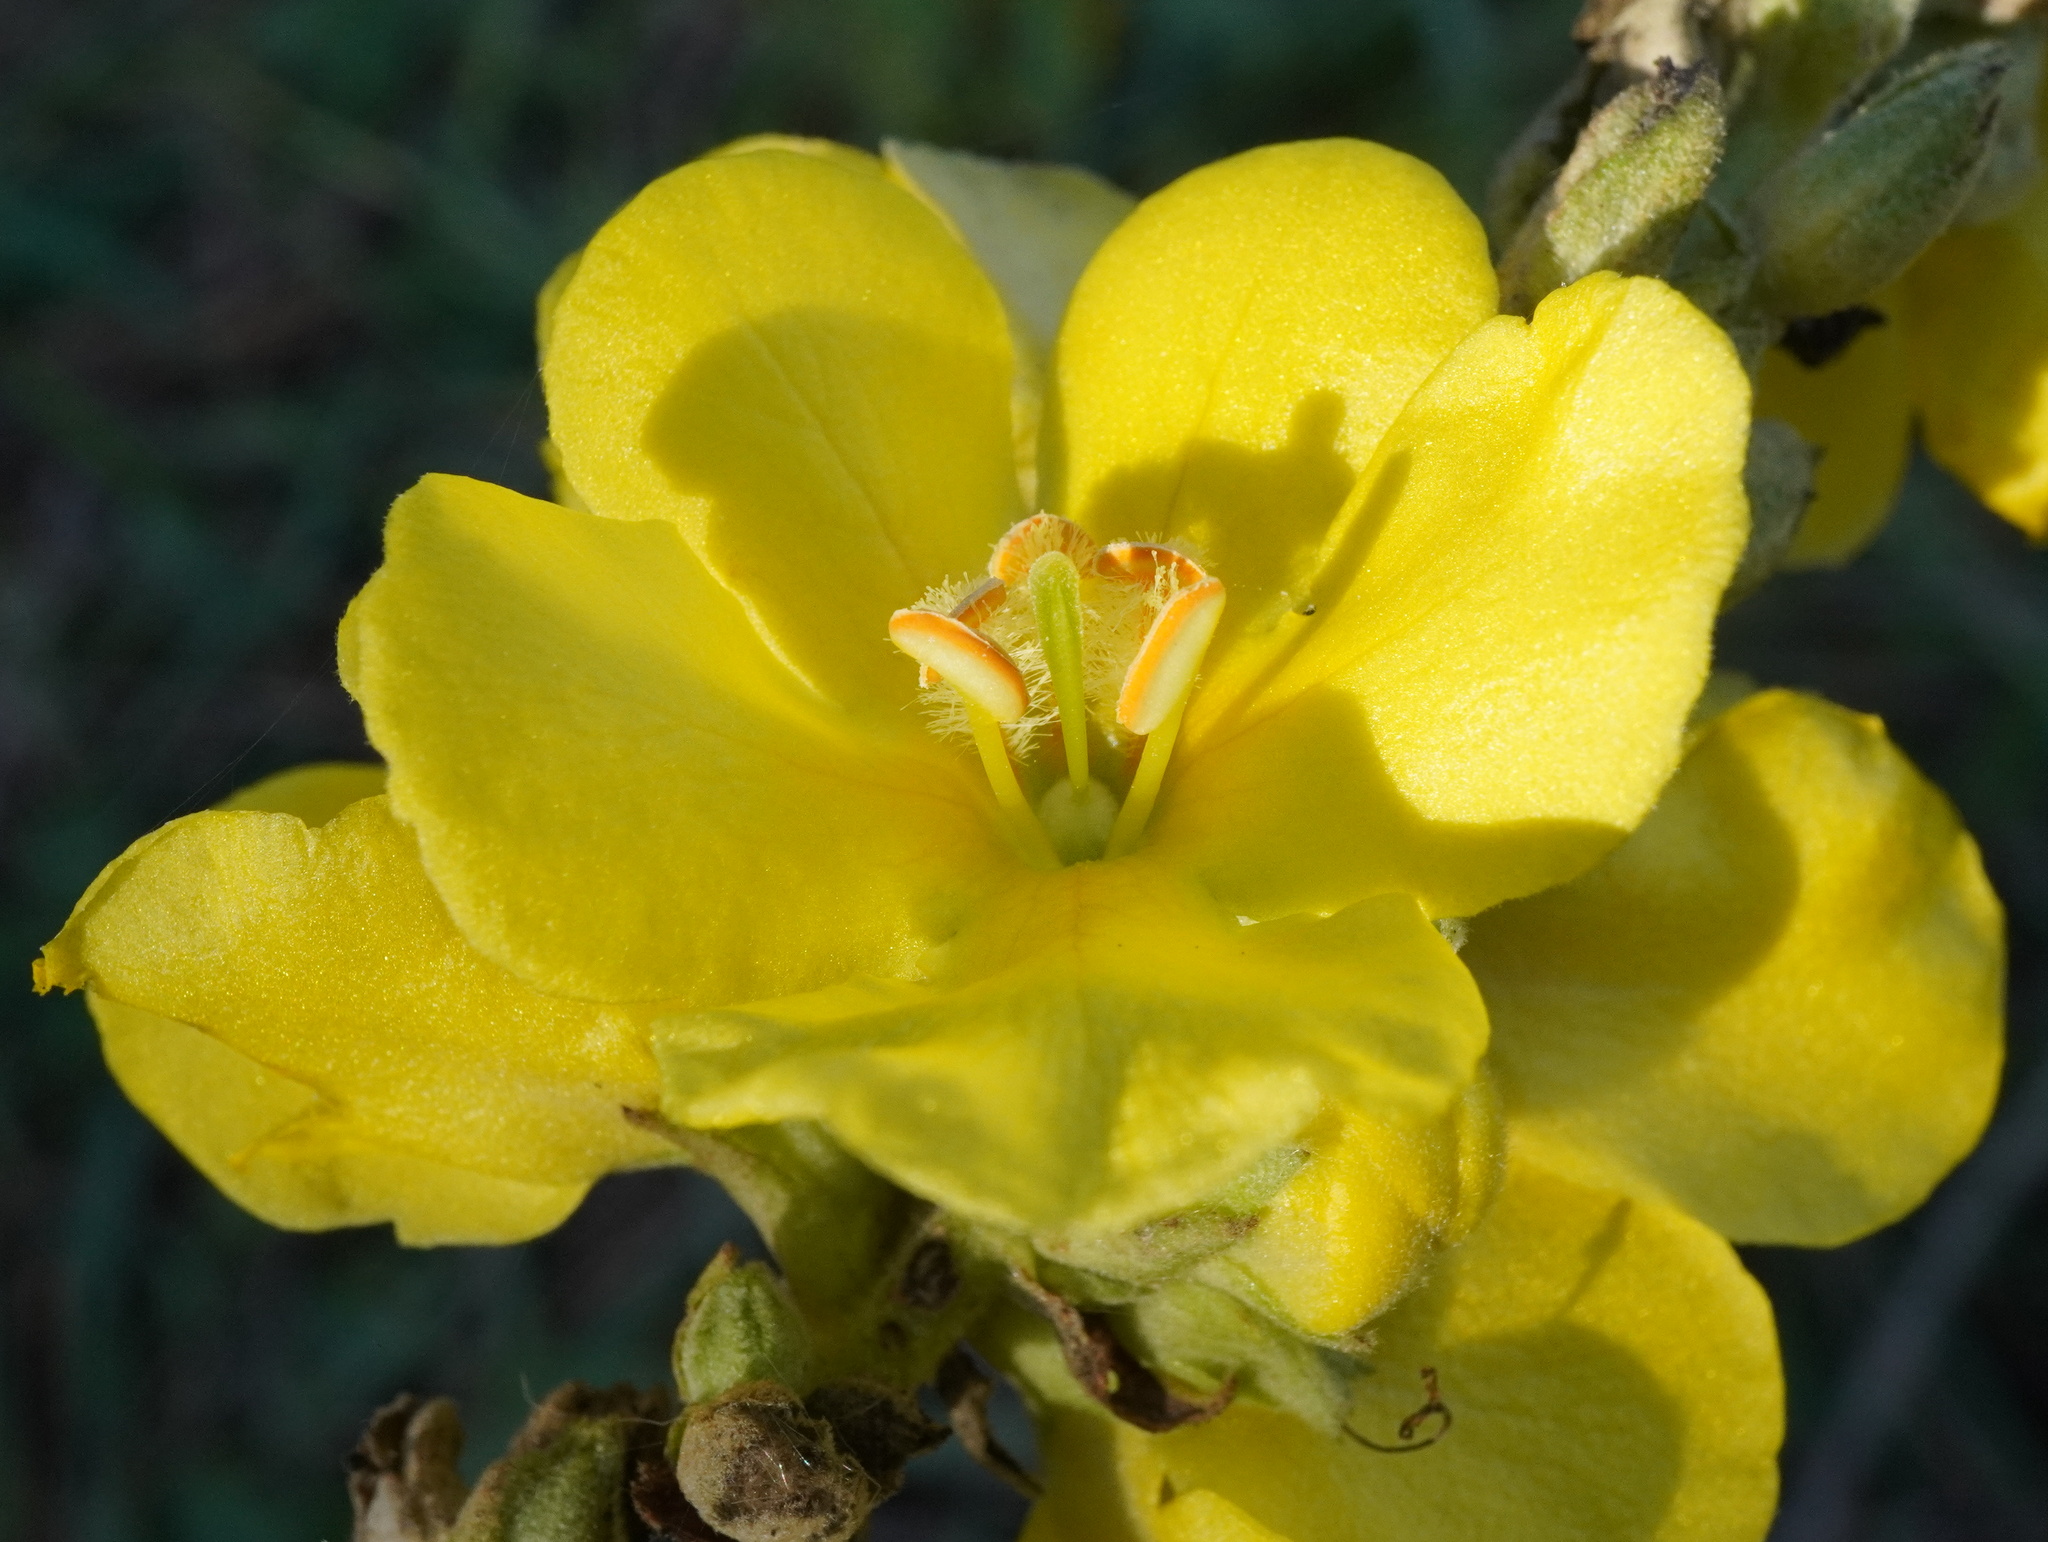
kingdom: Plantae
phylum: Tracheophyta
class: Magnoliopsida
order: Lamiales
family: Scrophulariaceae
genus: Verbascum
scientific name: Verbascum phlomoides
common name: Orange mullein
